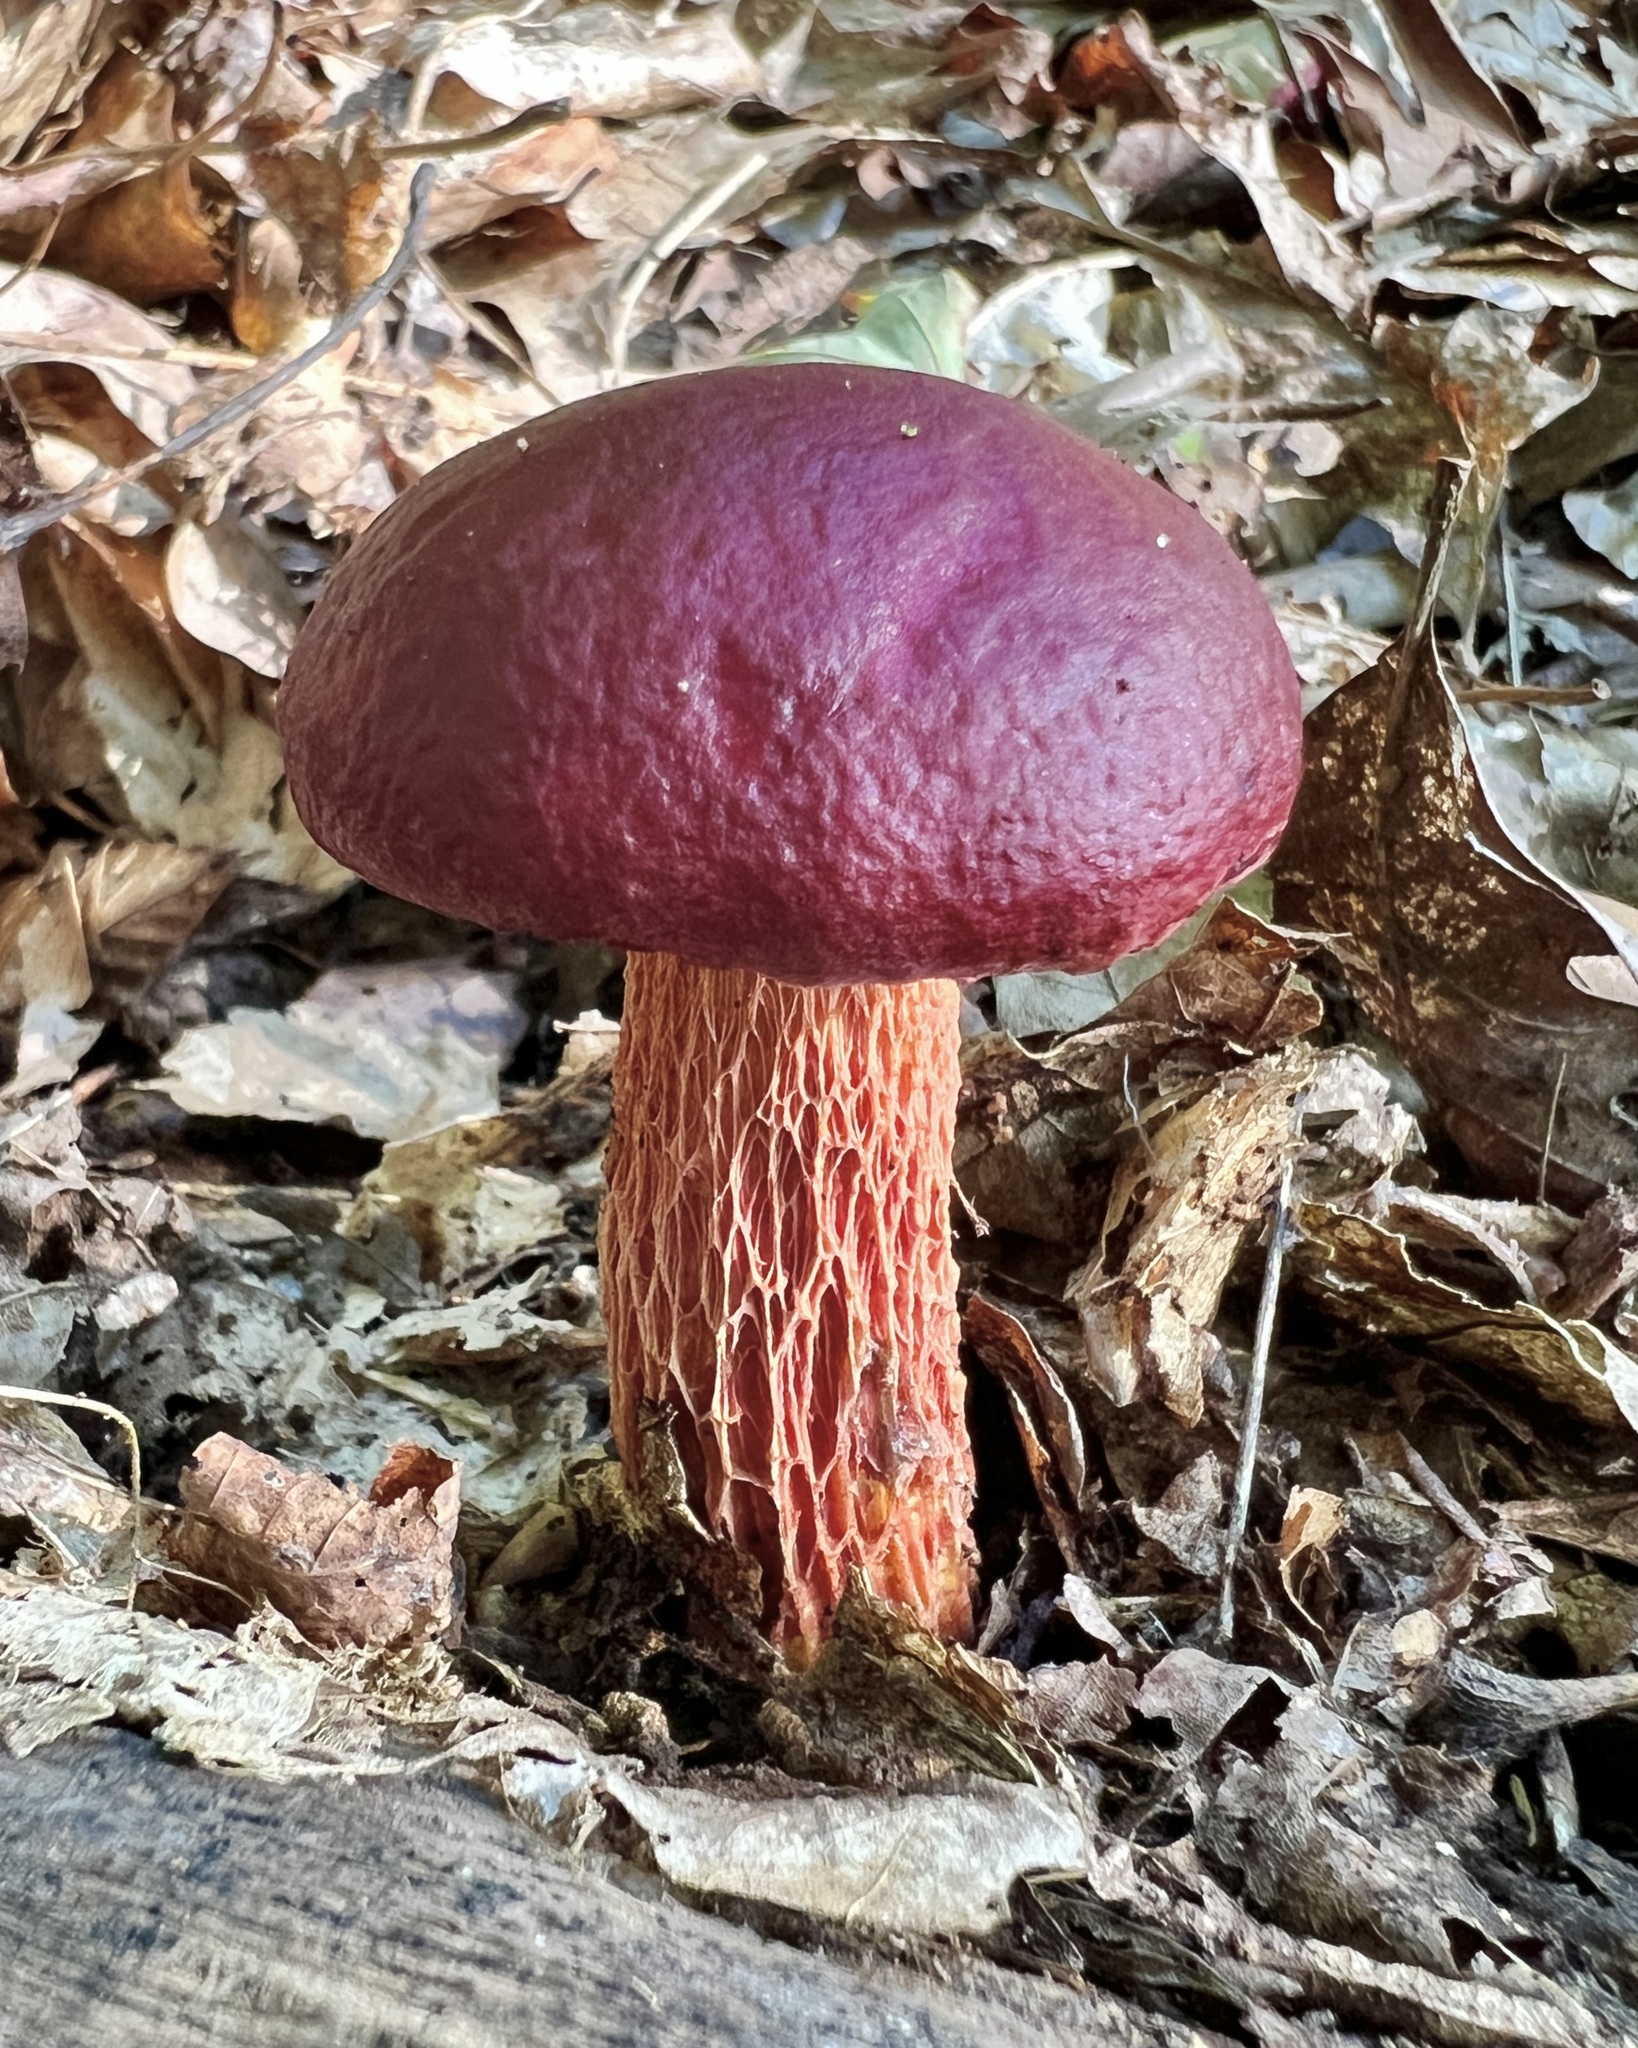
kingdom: Fungi
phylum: Basidiomycota
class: Agaricomycetes
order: Boletales
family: Boletaceae
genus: Butyriboletus
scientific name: Butyriboletus frostii
